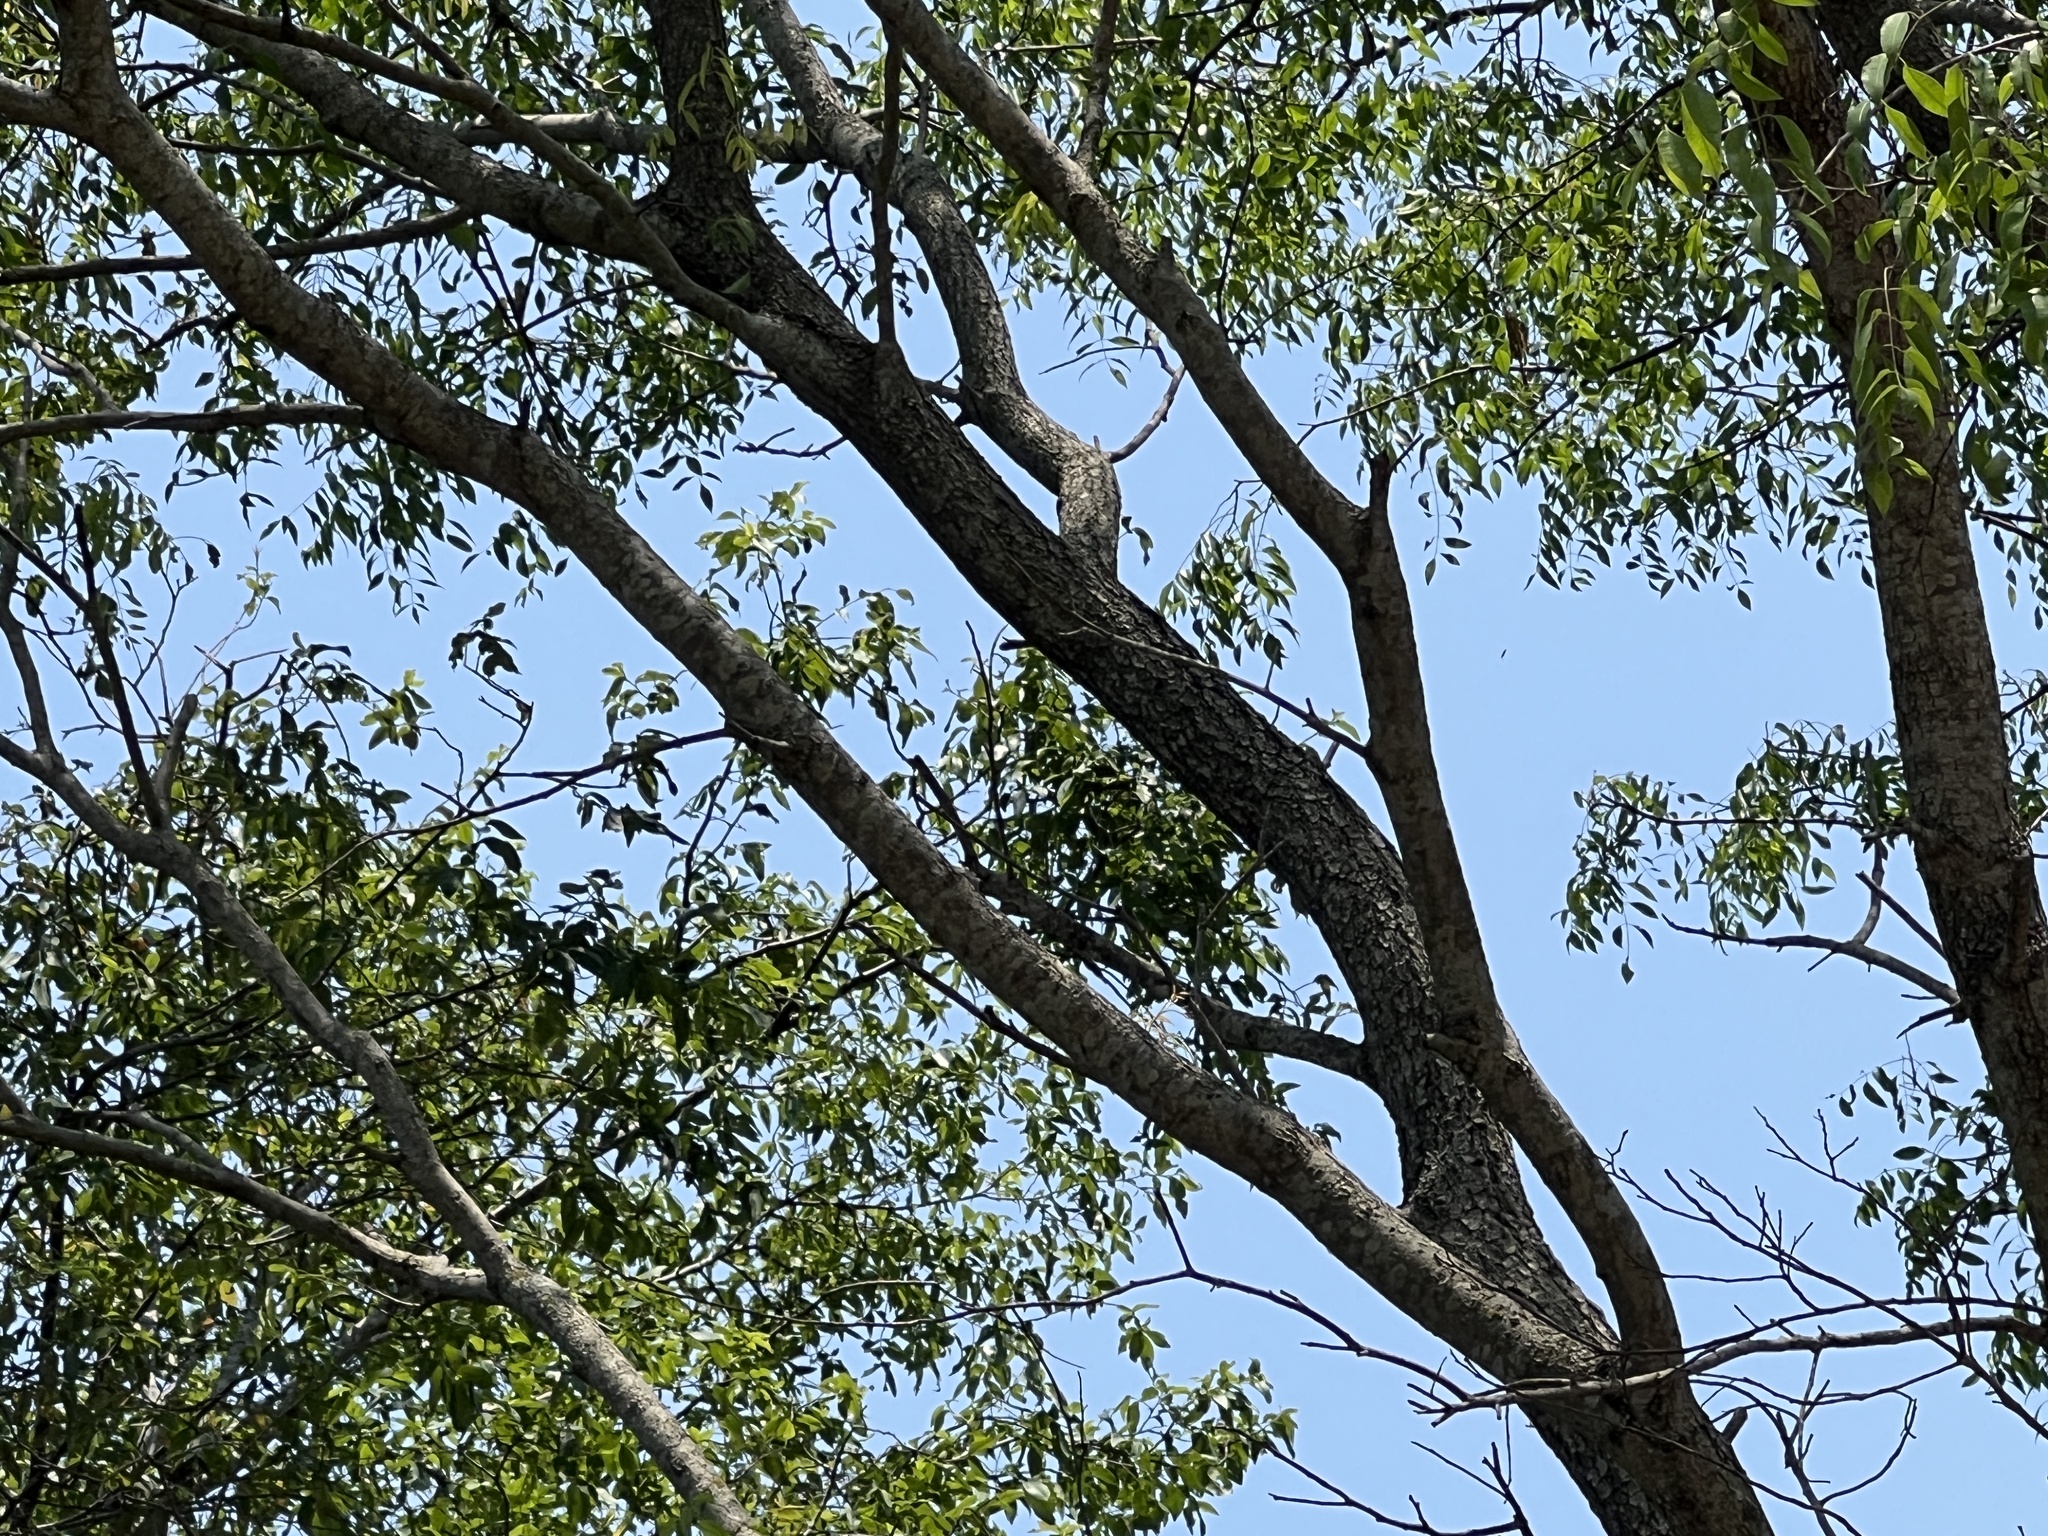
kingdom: Animalia
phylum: Chordata
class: Mammalia
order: Primates
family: Atelidae
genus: Alouatta
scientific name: Alouatta caraya
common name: Black howler
